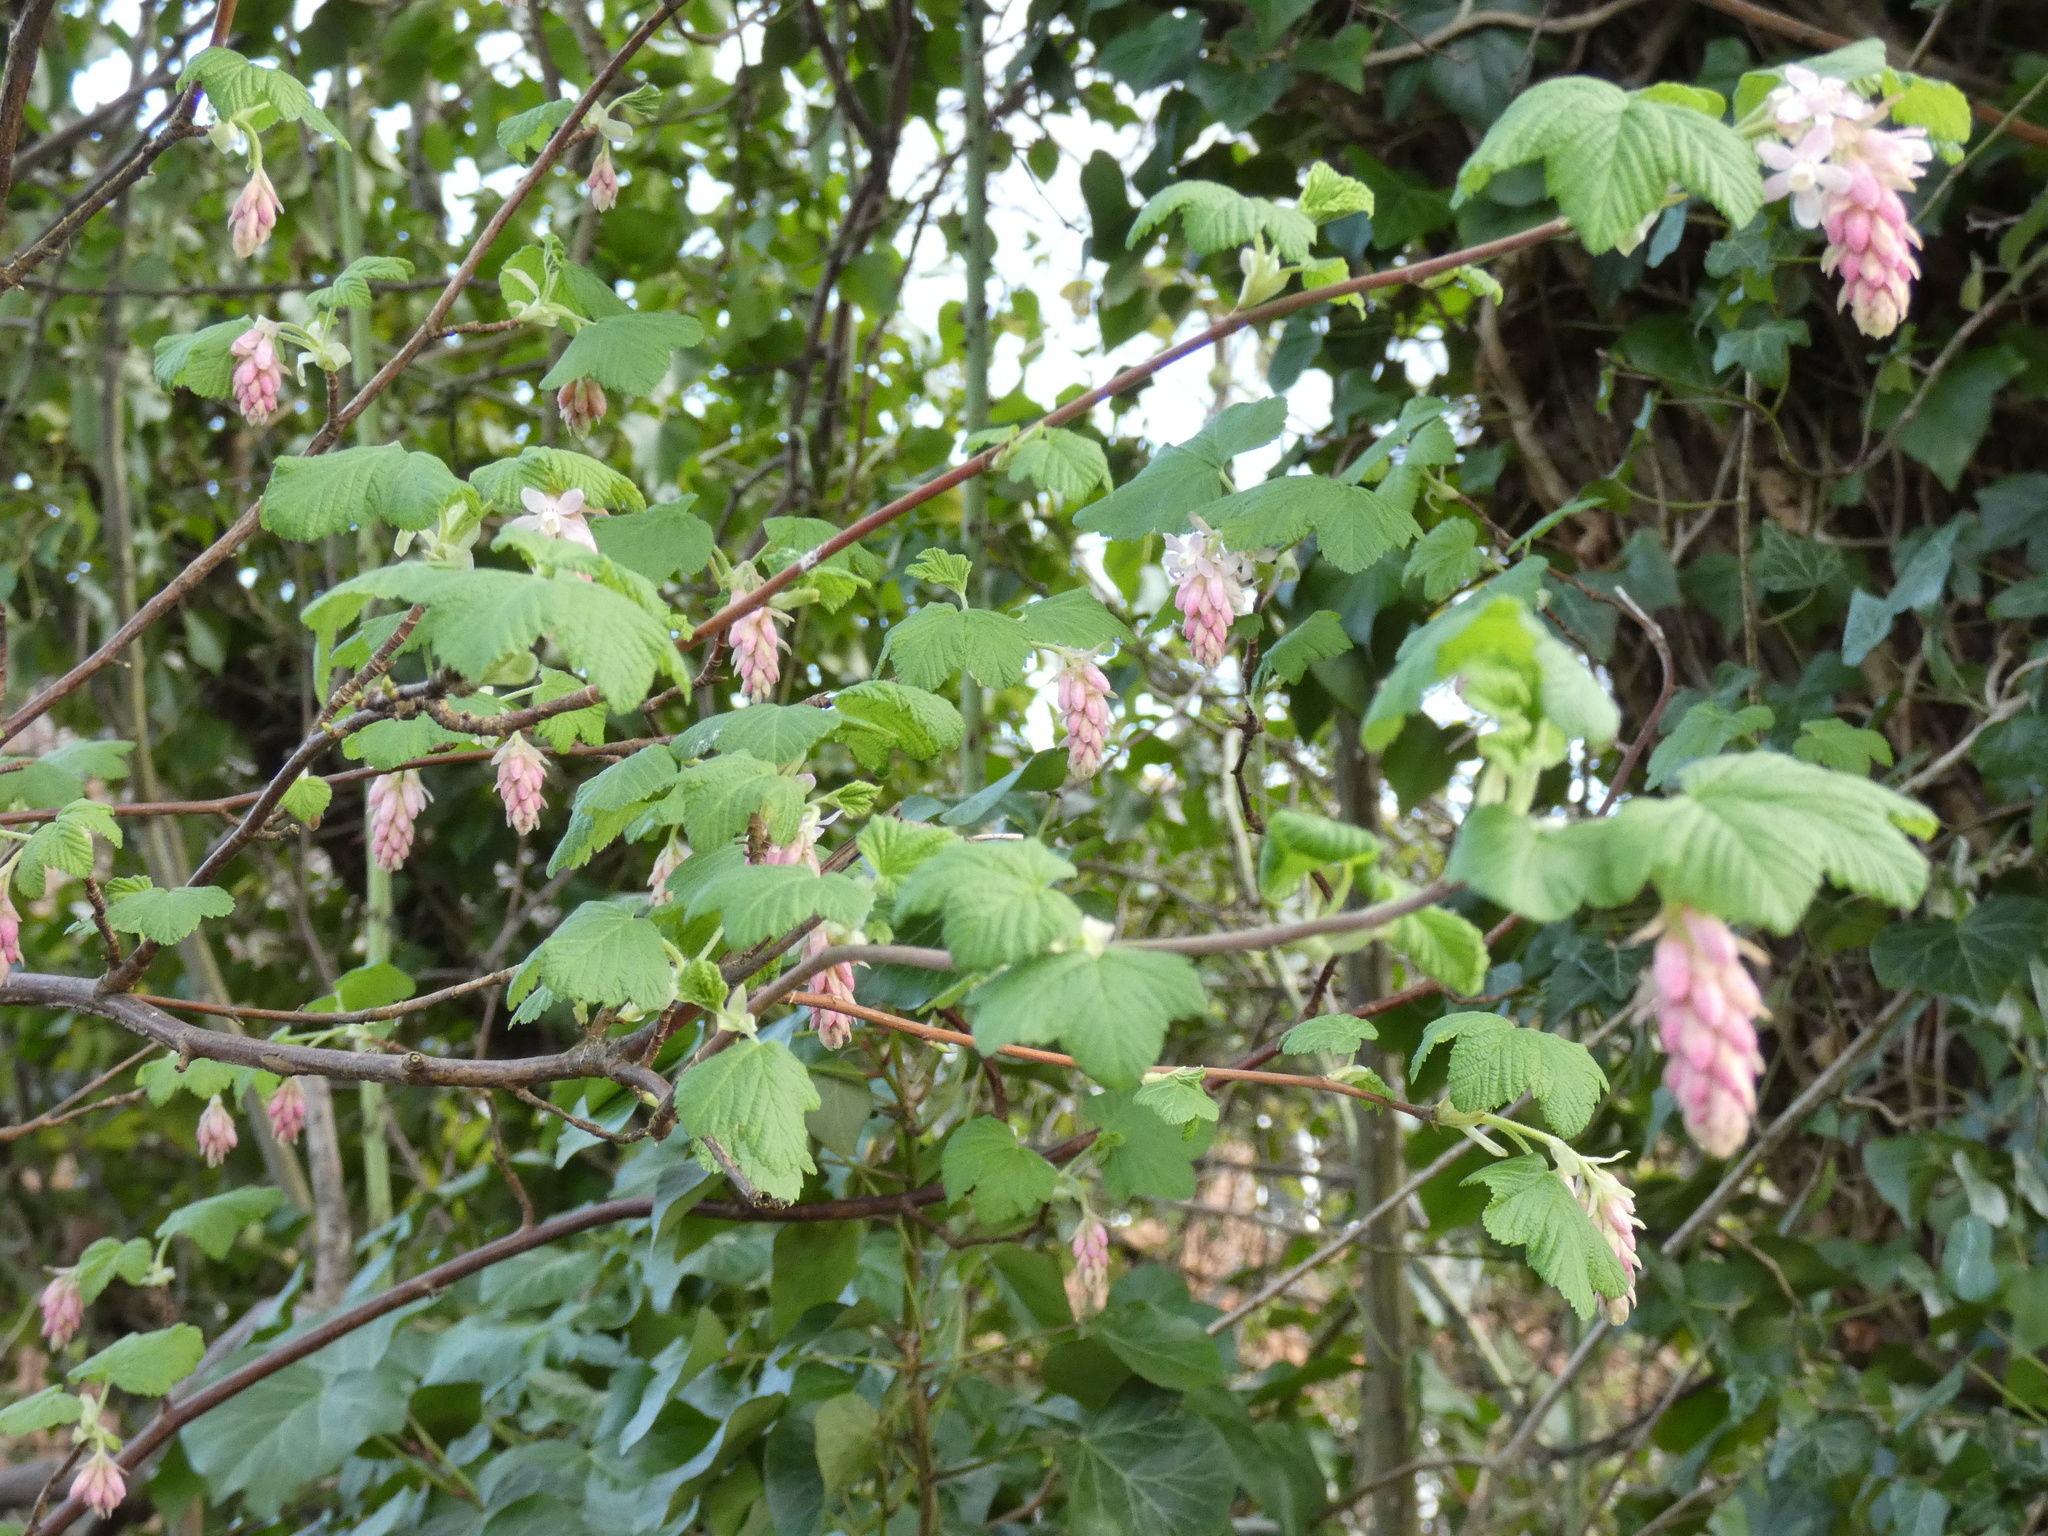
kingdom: Plantae
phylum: Tracheophyta
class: Magnoliopsida
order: Saxifragales
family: Grossulariaceae
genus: Ribes
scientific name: Ribes sanguineum
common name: Flowering currant
